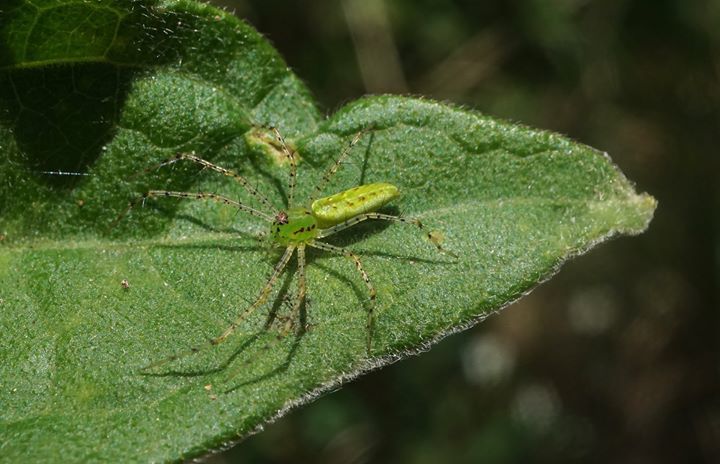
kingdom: Animalia
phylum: Arthropoda
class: Arachnida
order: Araneae
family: Oxyopidae
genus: Peucetia
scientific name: Peucetia viridans
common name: Lynx spiders
